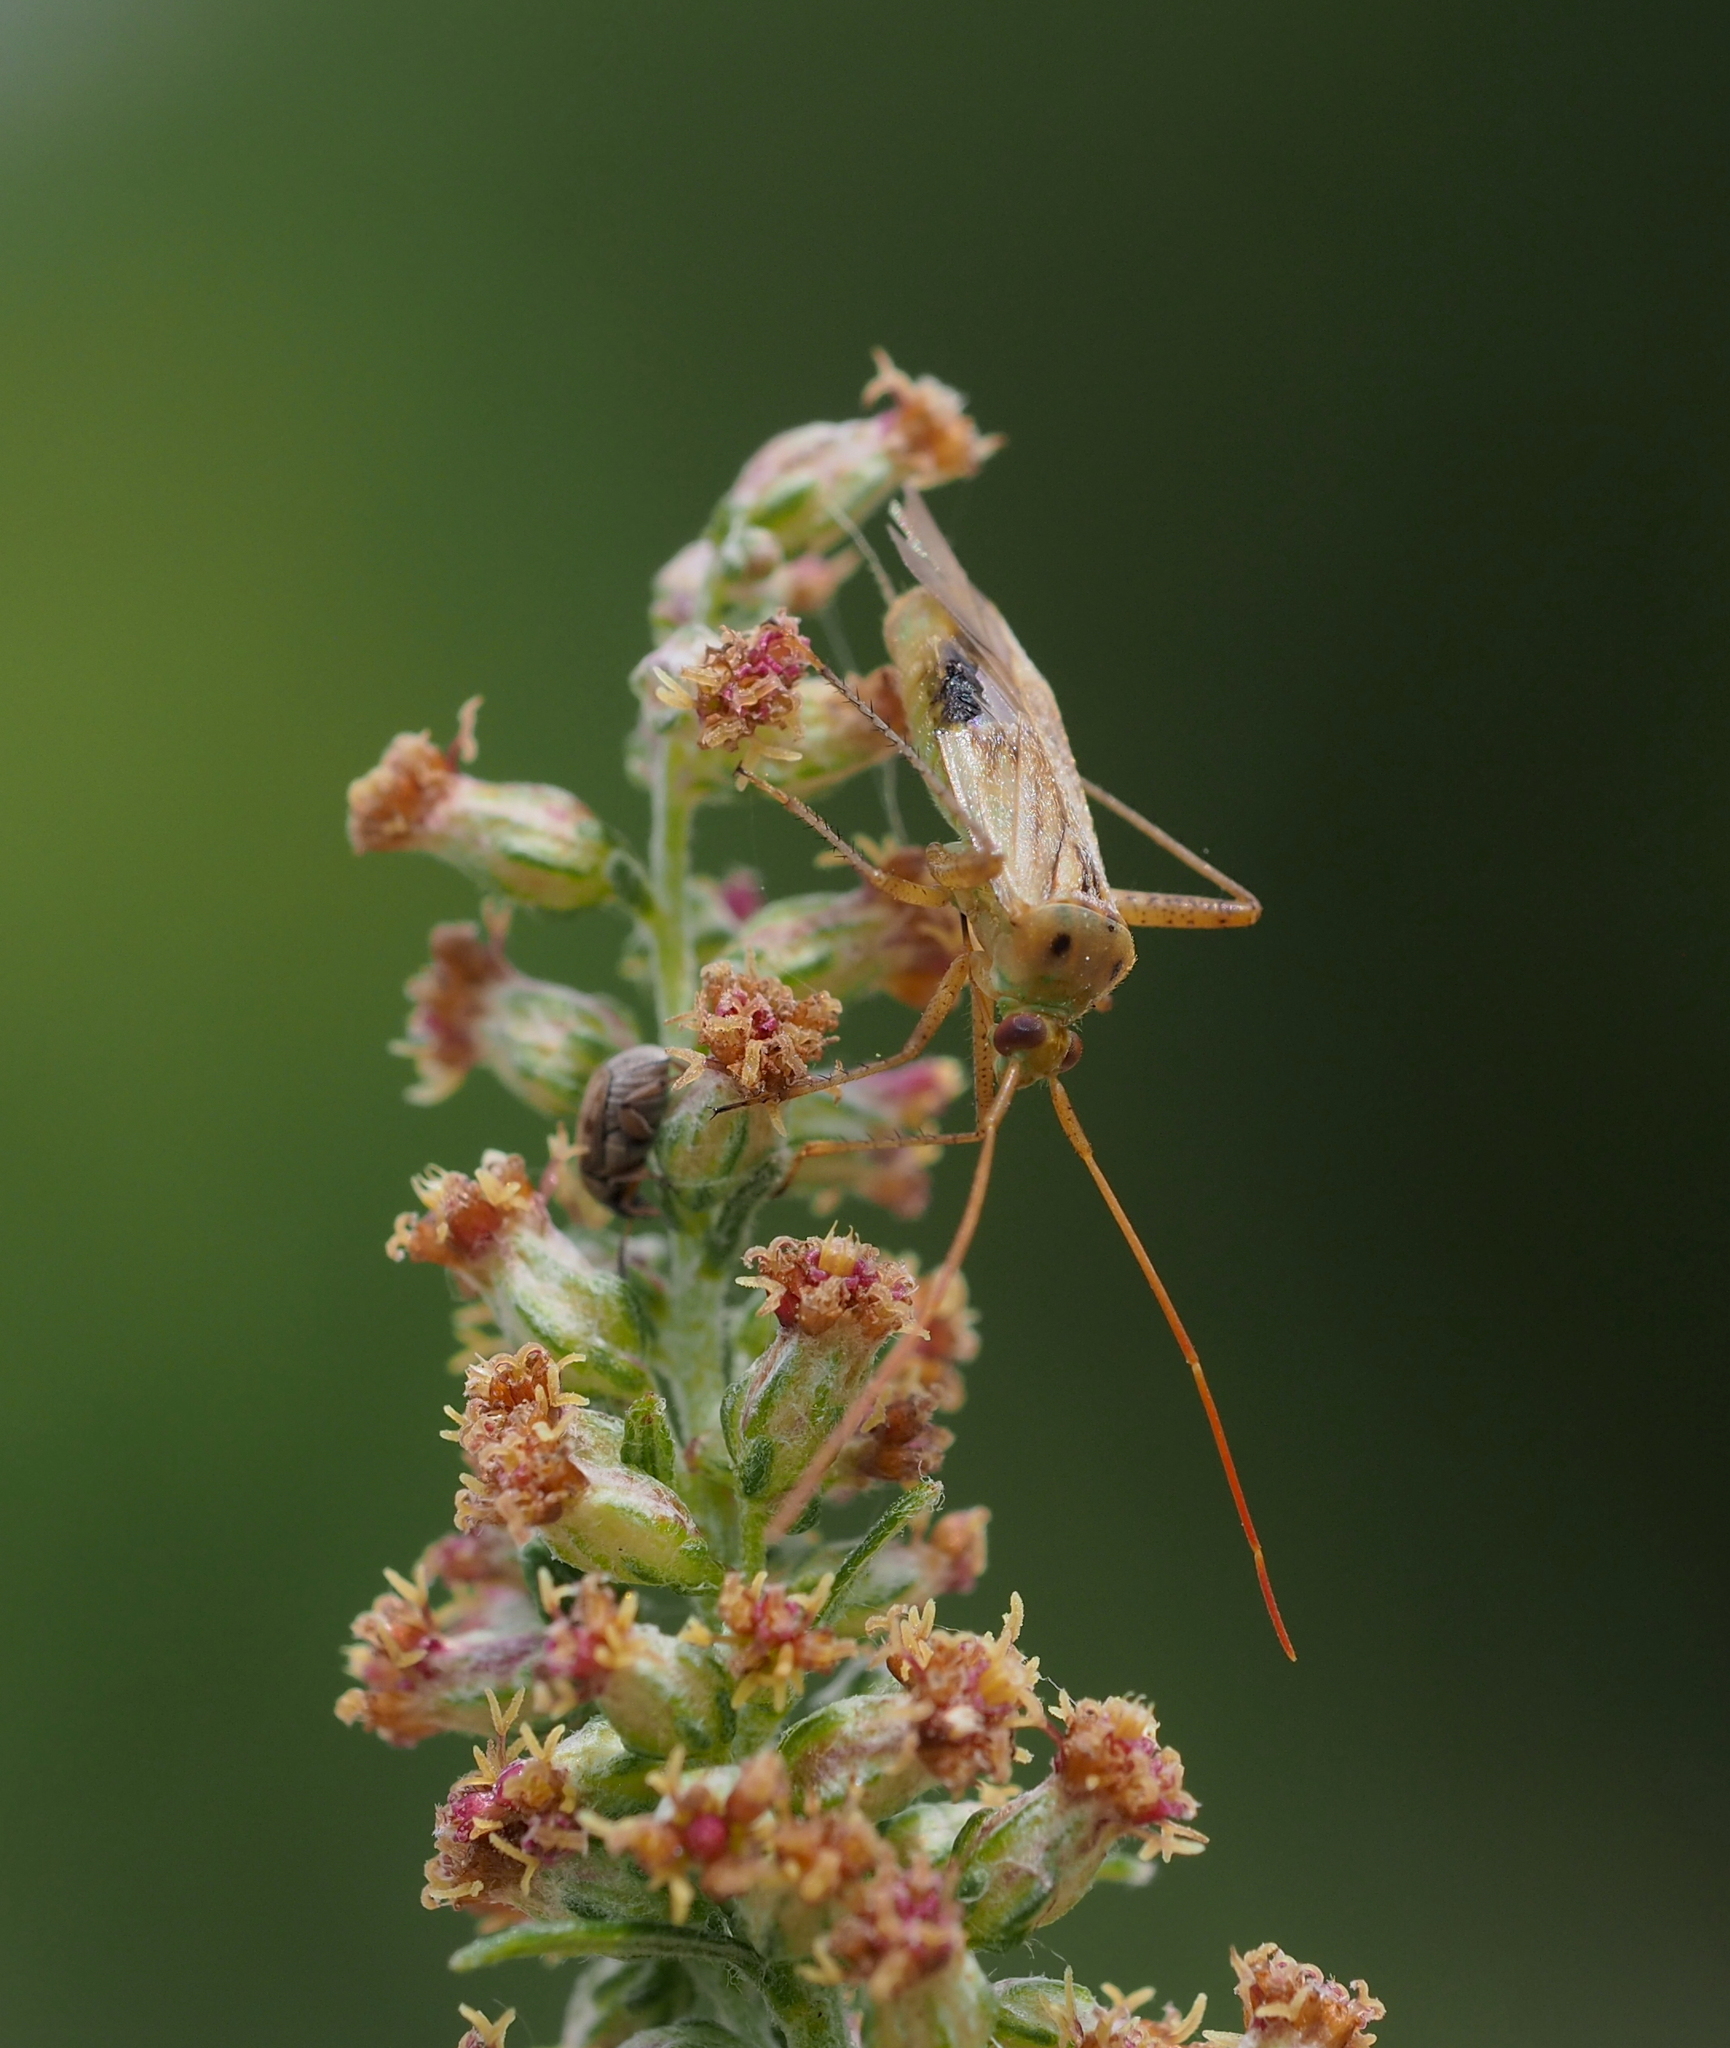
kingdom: Animalia
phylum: Arthropoda
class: Insecta
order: Hemiptera
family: Miridae
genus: Adelphocoris
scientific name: Adelphocoris lineolatus
